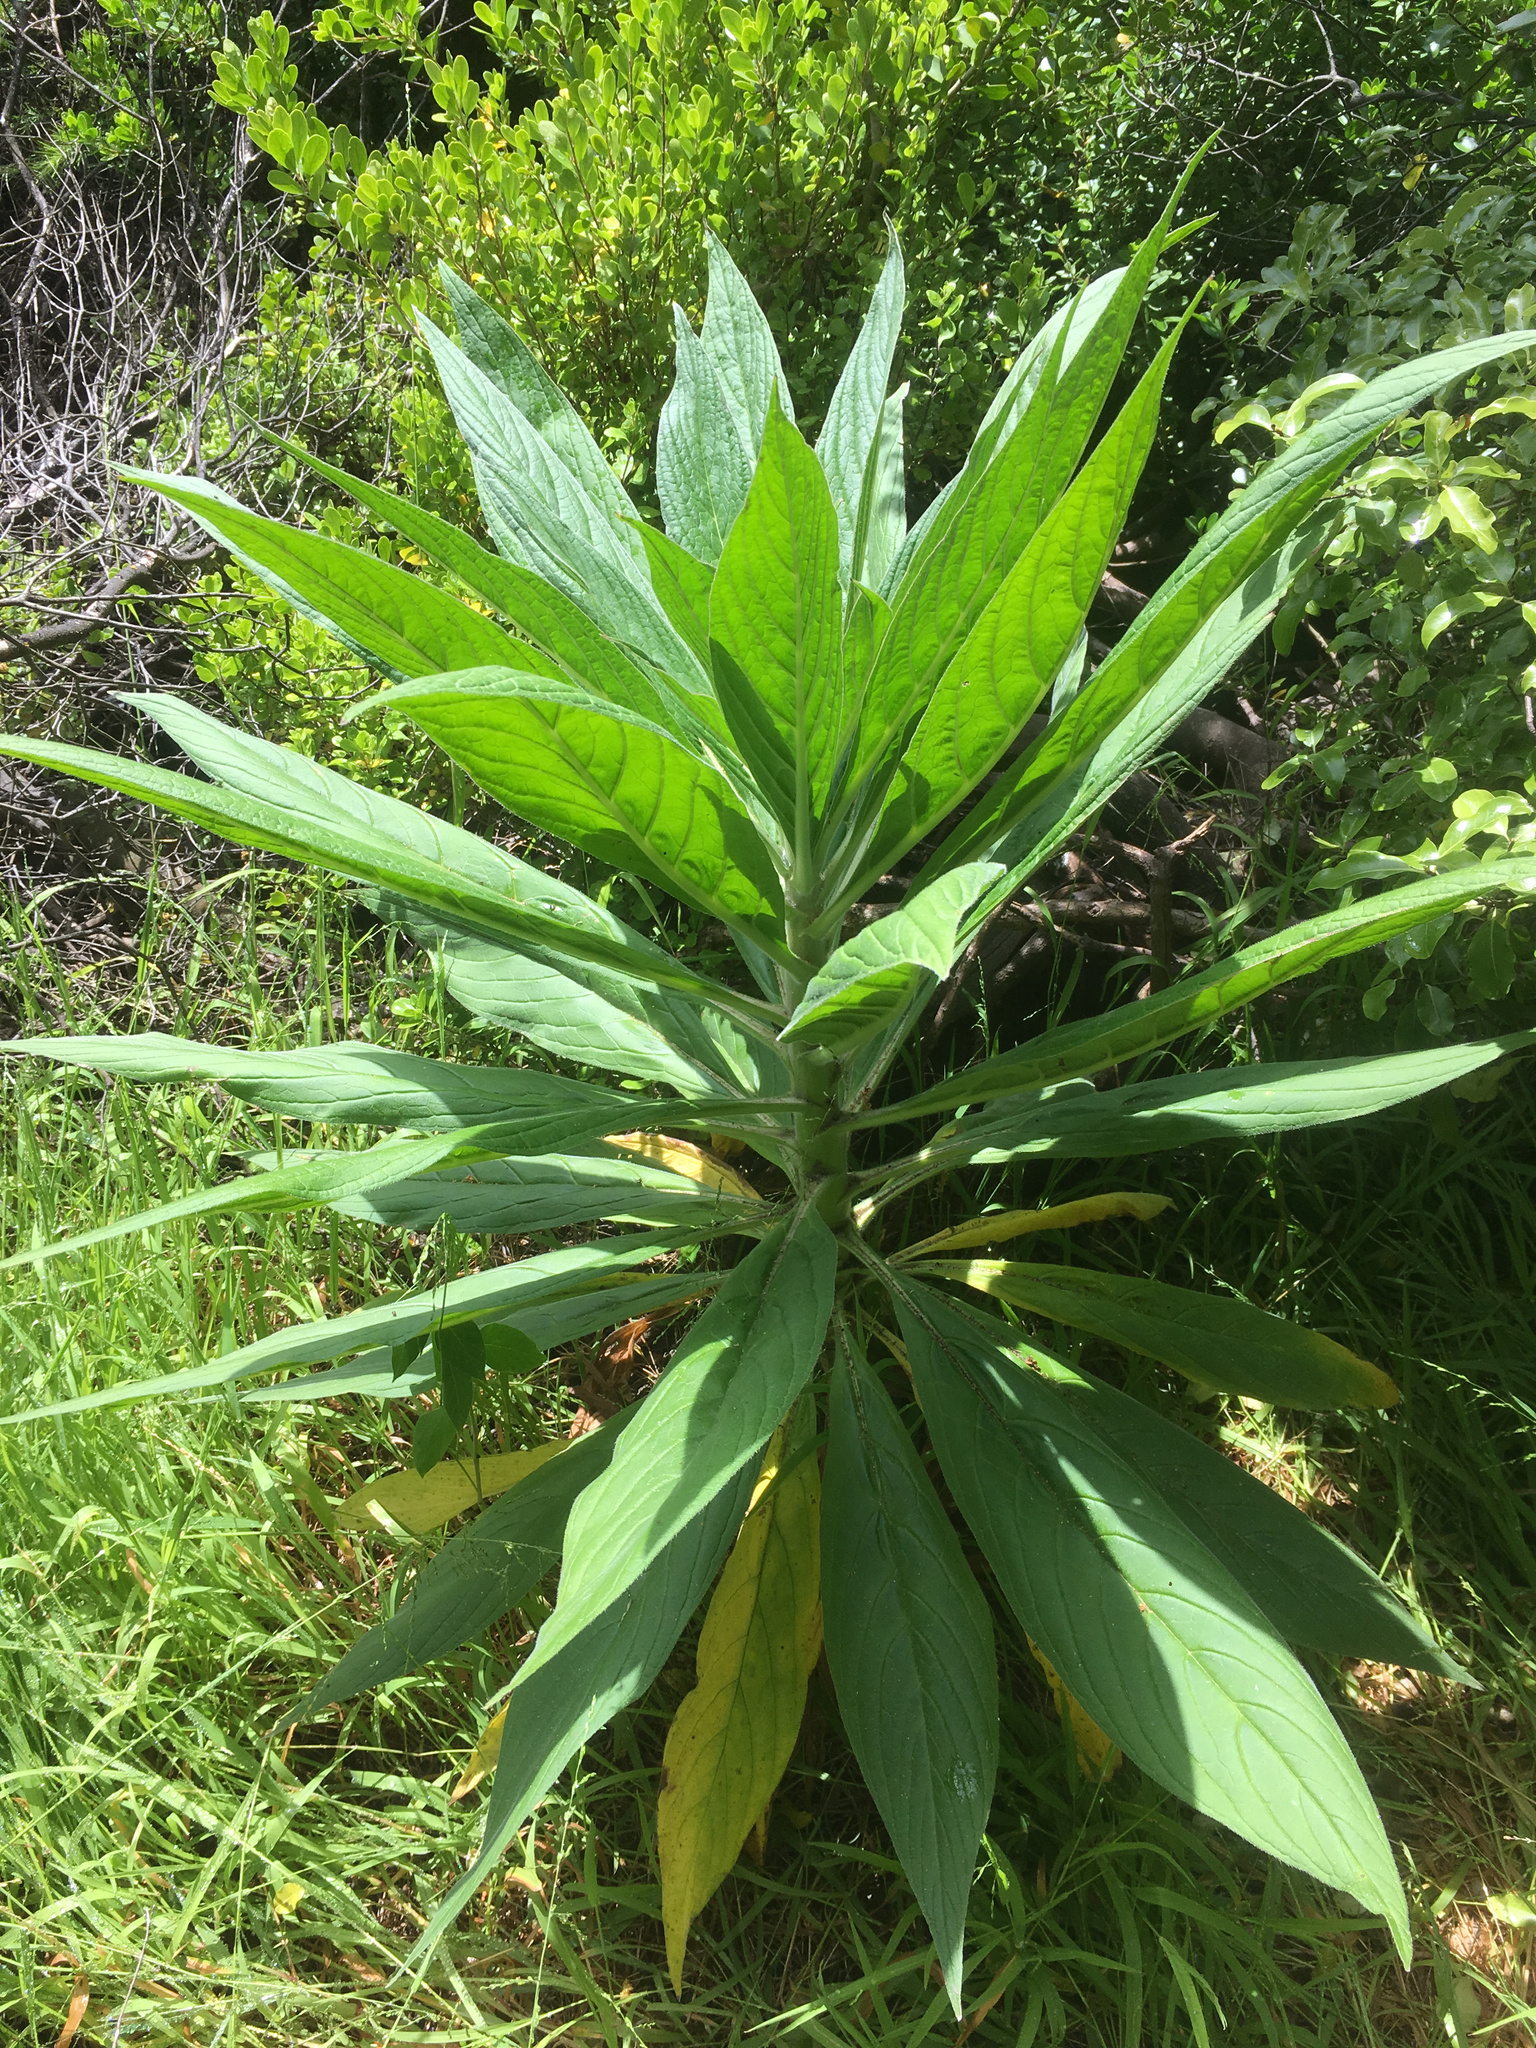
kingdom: Plantae
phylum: Tracheophyta
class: Magnoliopsida
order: Boraginales
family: Boraginaceae
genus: Echium
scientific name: Echium candicans
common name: Pride of madeira
